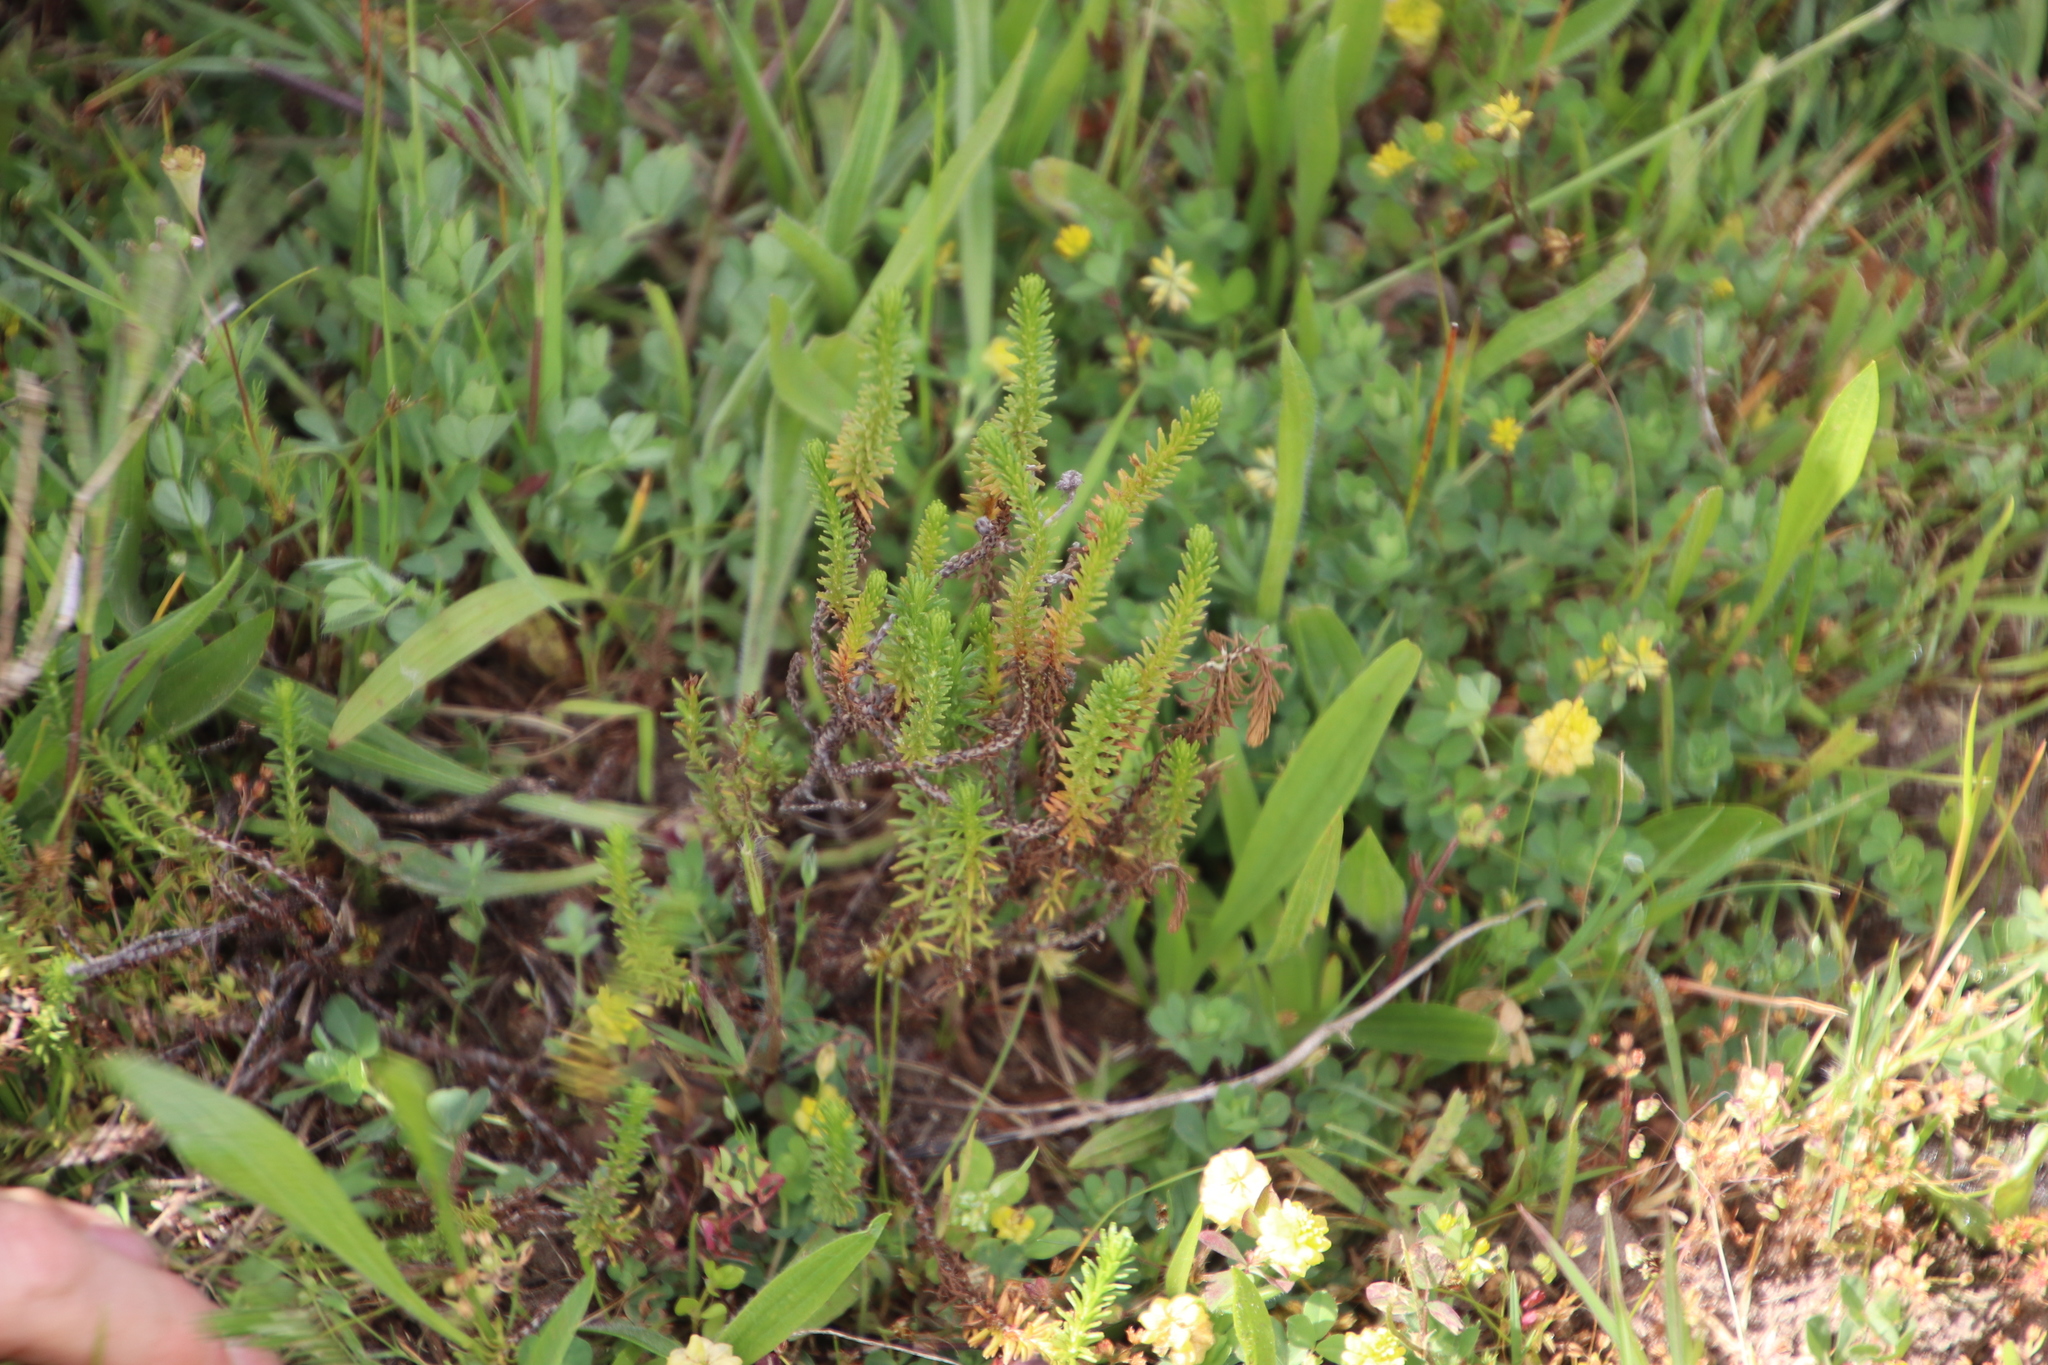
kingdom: Plantae
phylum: Tracheophyta
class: Magnoliopsida
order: Asterales
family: Asteraceae
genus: Helichrysum
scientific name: Helichrysum niveum
